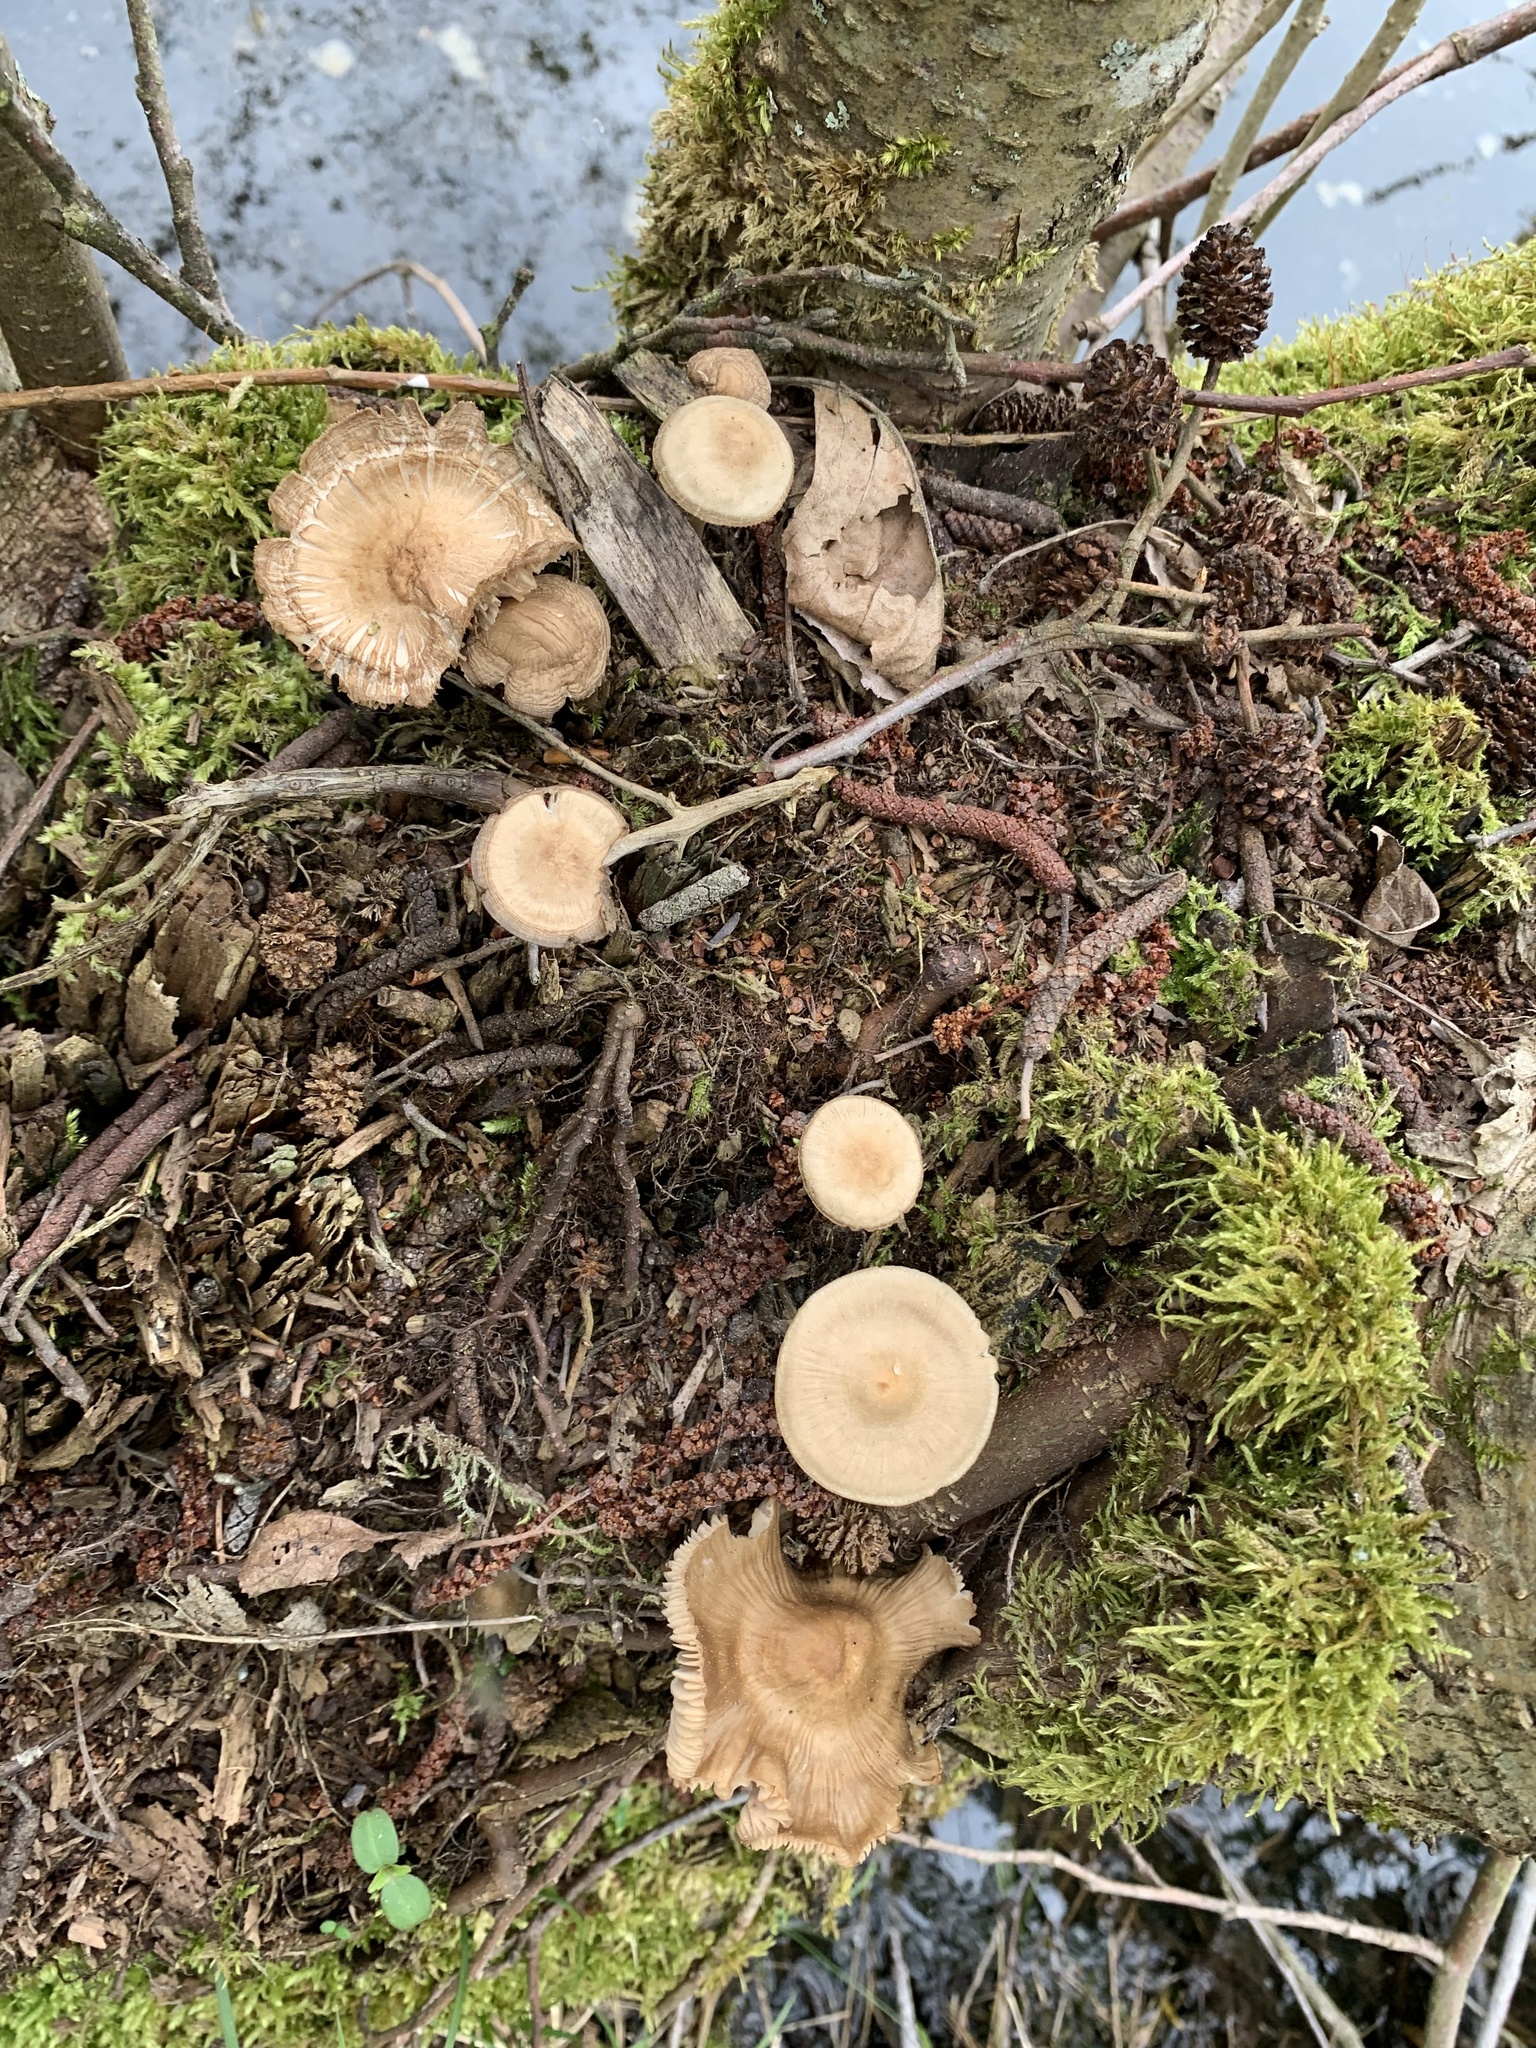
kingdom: Fungi
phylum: Basidiomycota
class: Agaricomycetes
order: Agaricales
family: Mycenaceae
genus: Mycena
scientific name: Mycena galericulata
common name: Bonnet mycena
